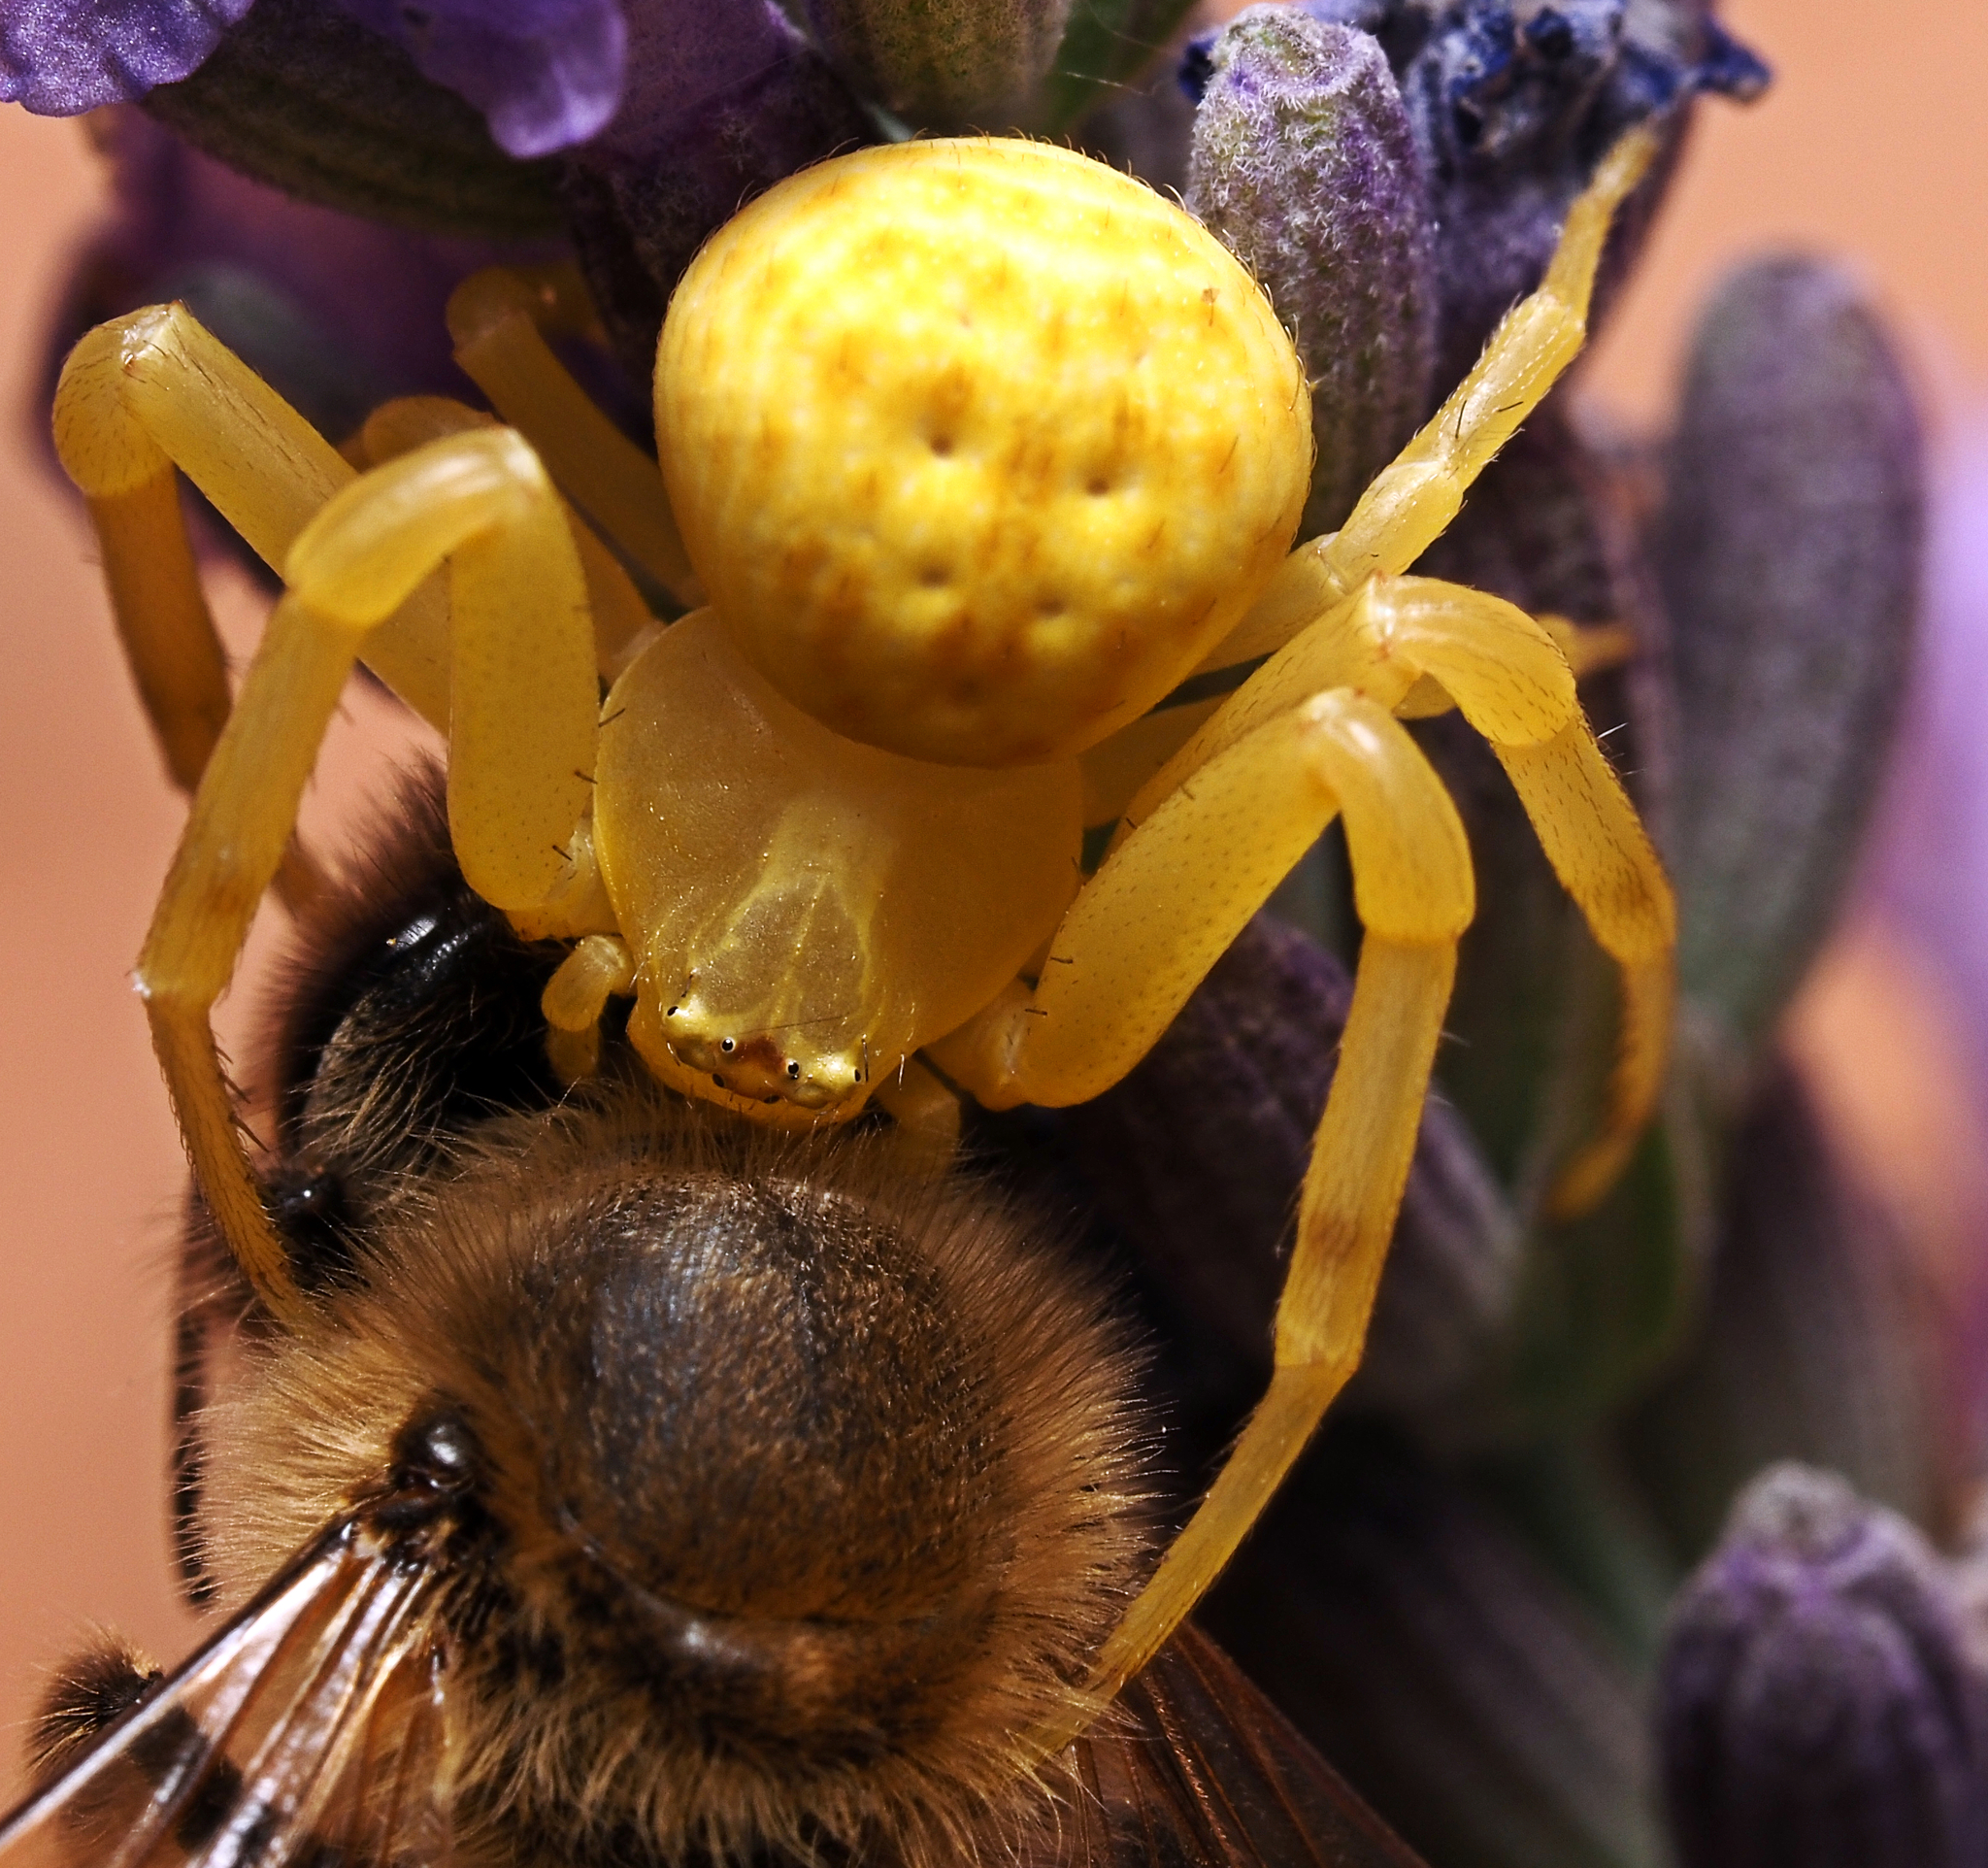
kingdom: Animalia
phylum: Arthropoda
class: Arachnida
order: Araneae
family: Thomisidae
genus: Zygometis
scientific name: Zygometis xanthogaster
